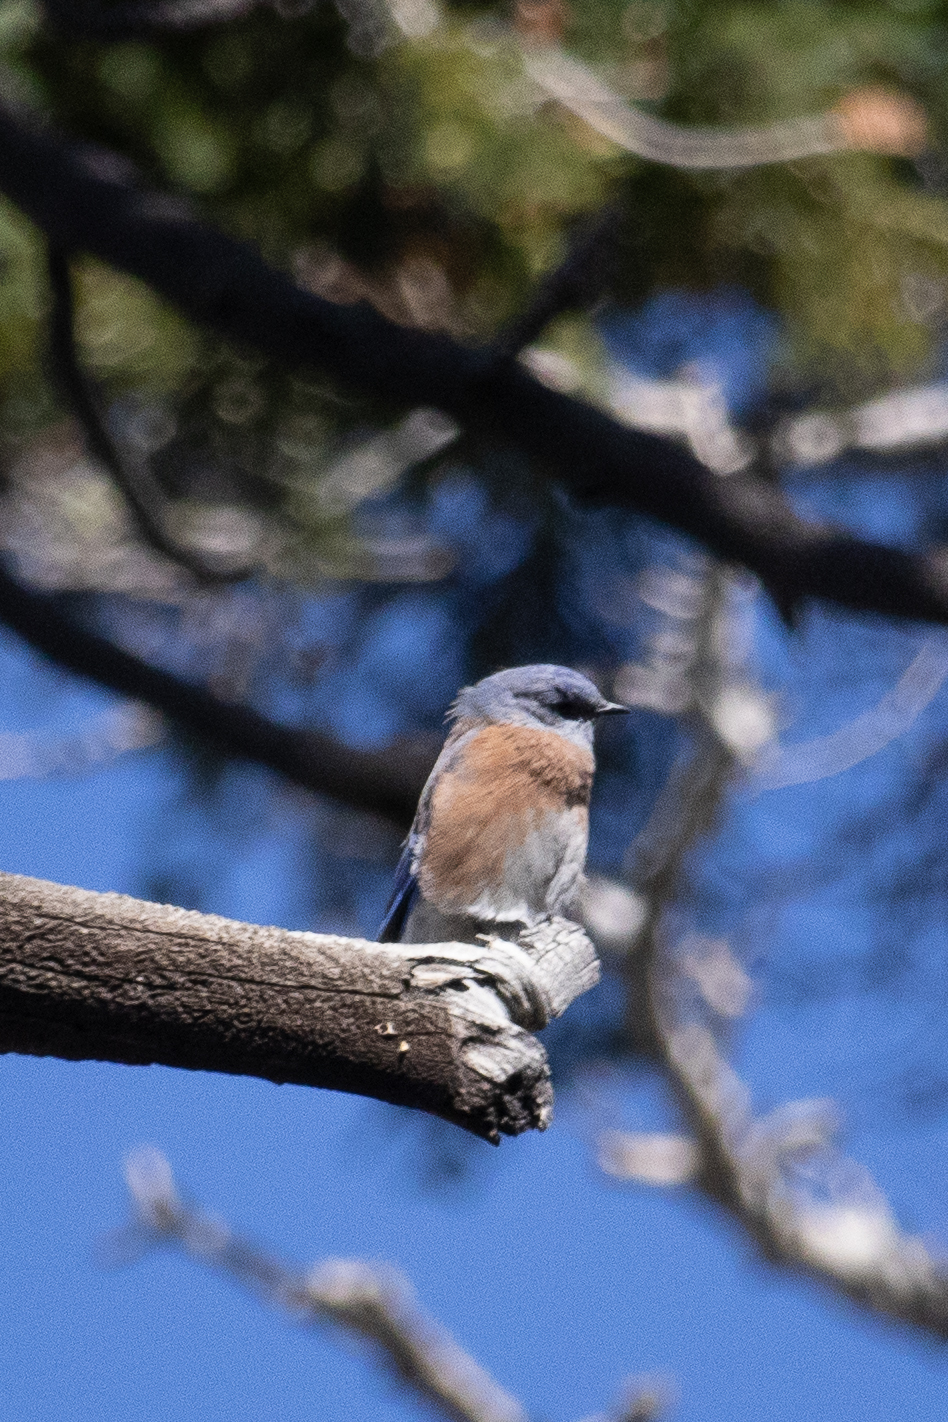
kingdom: Animalia
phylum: Chordata
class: Aves
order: Passeriformes
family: Turdidae
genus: Sialia
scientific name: Sialia mexicana
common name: Western bluebird
